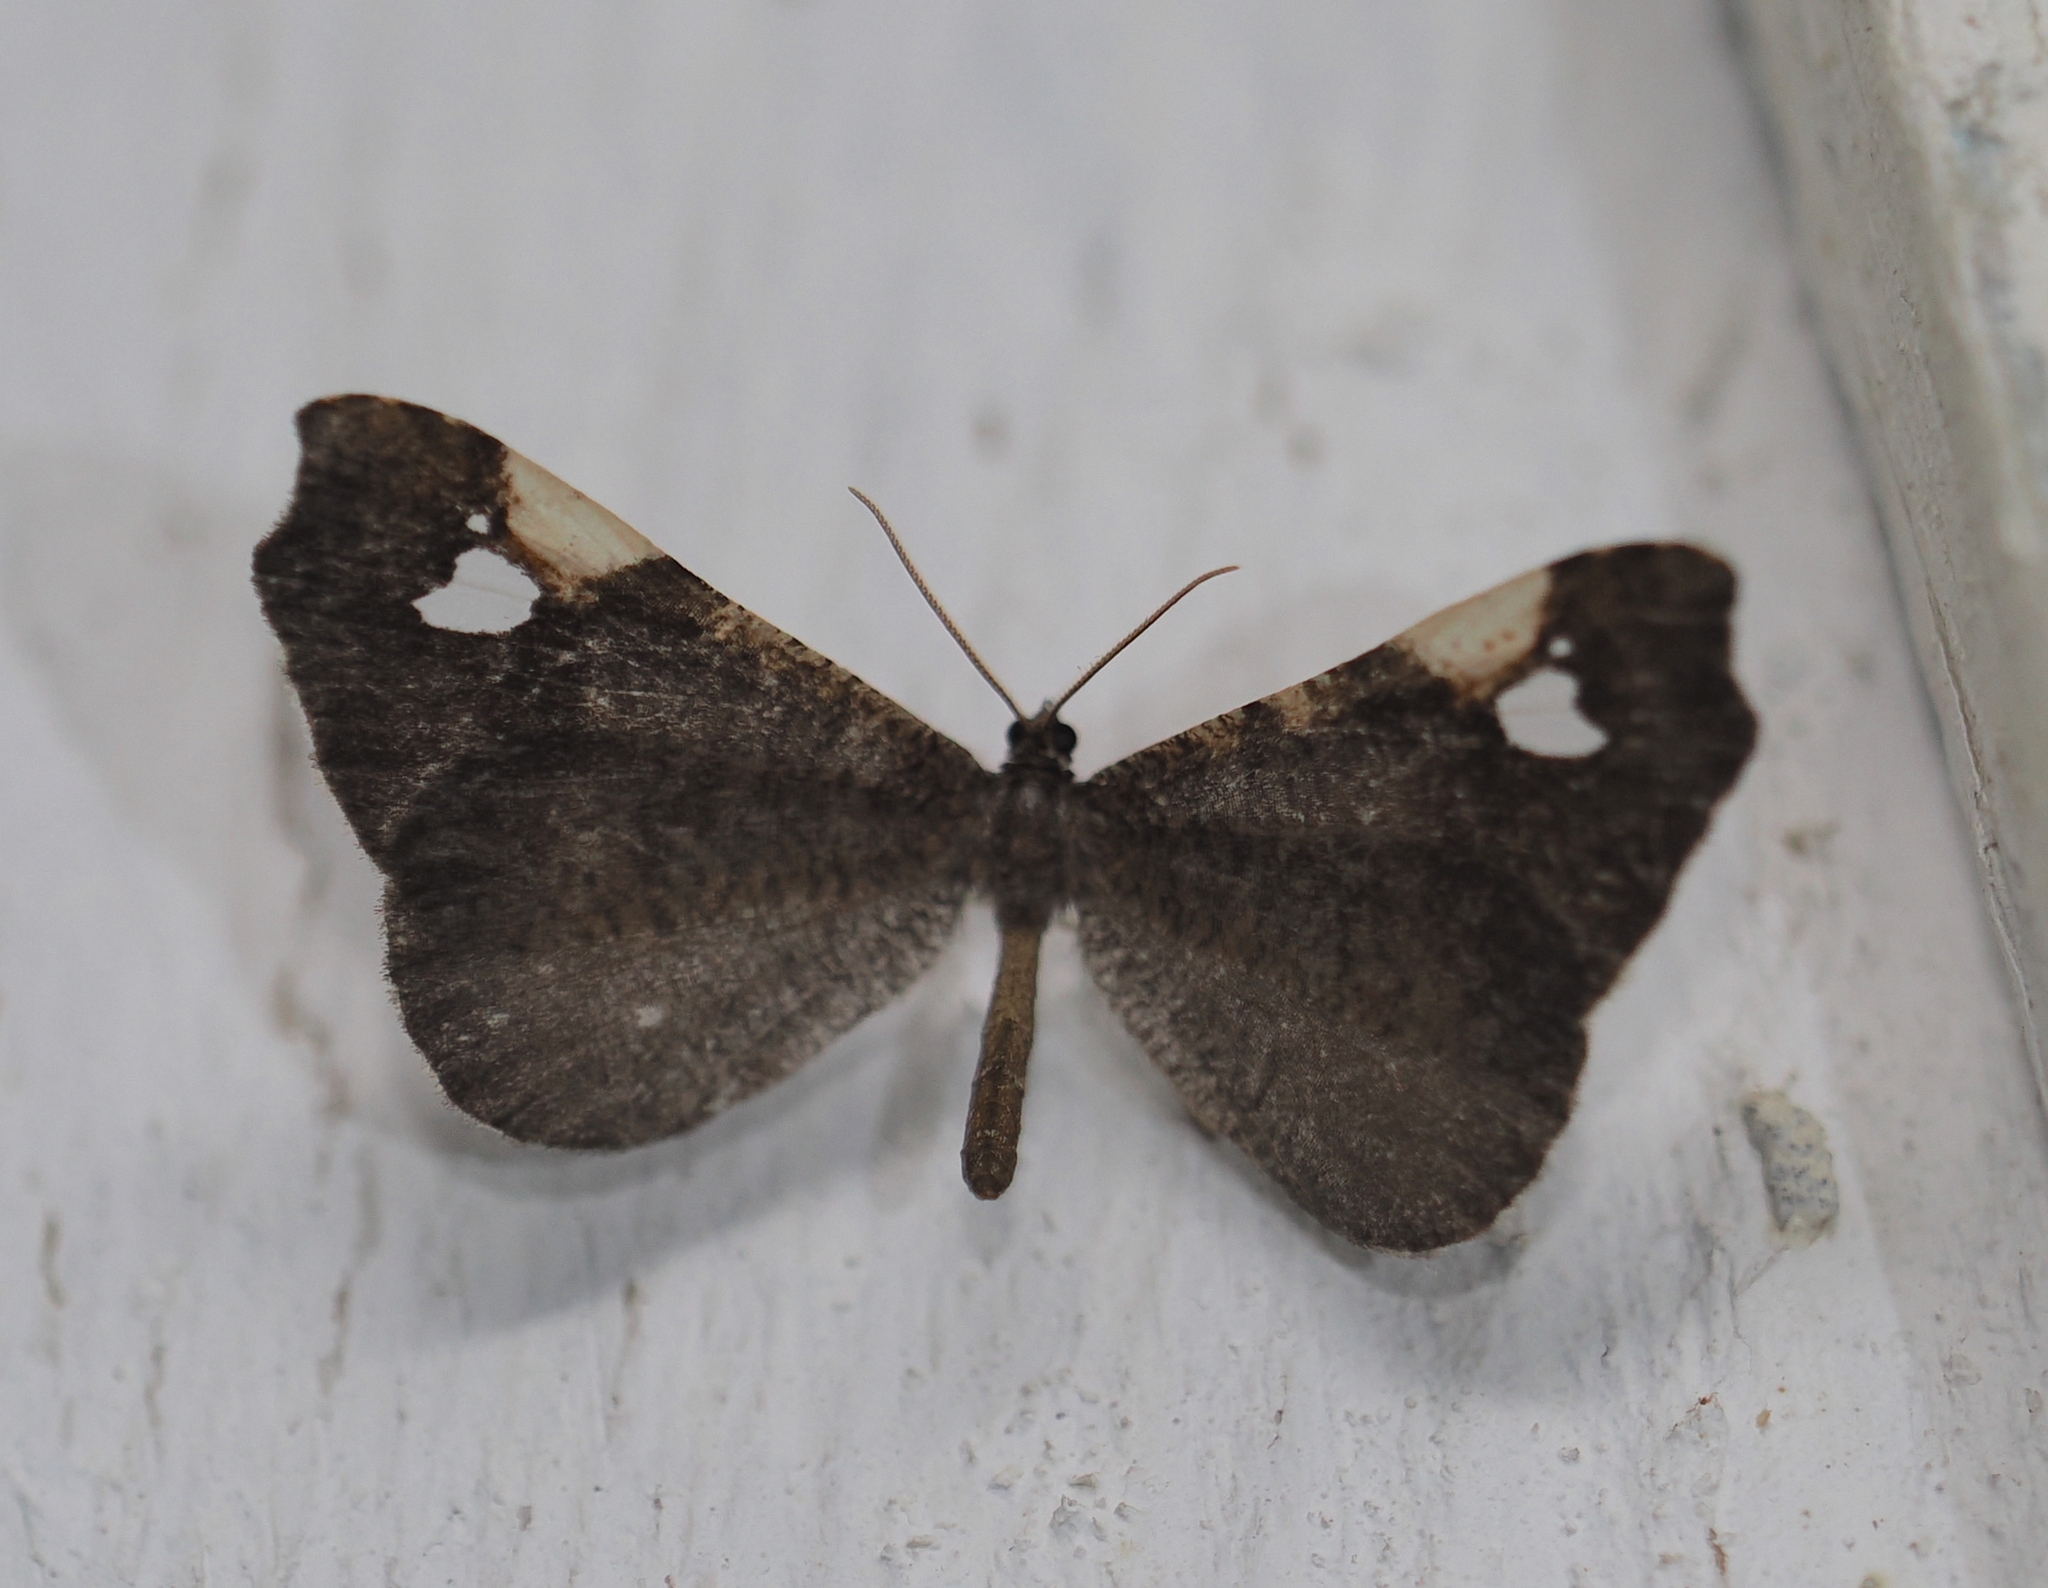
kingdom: Animalia
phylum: Arthropoda
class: Insecta
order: Lepidoptera
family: Hedylidae
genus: Macrosoma
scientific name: Macrosoma subornata
